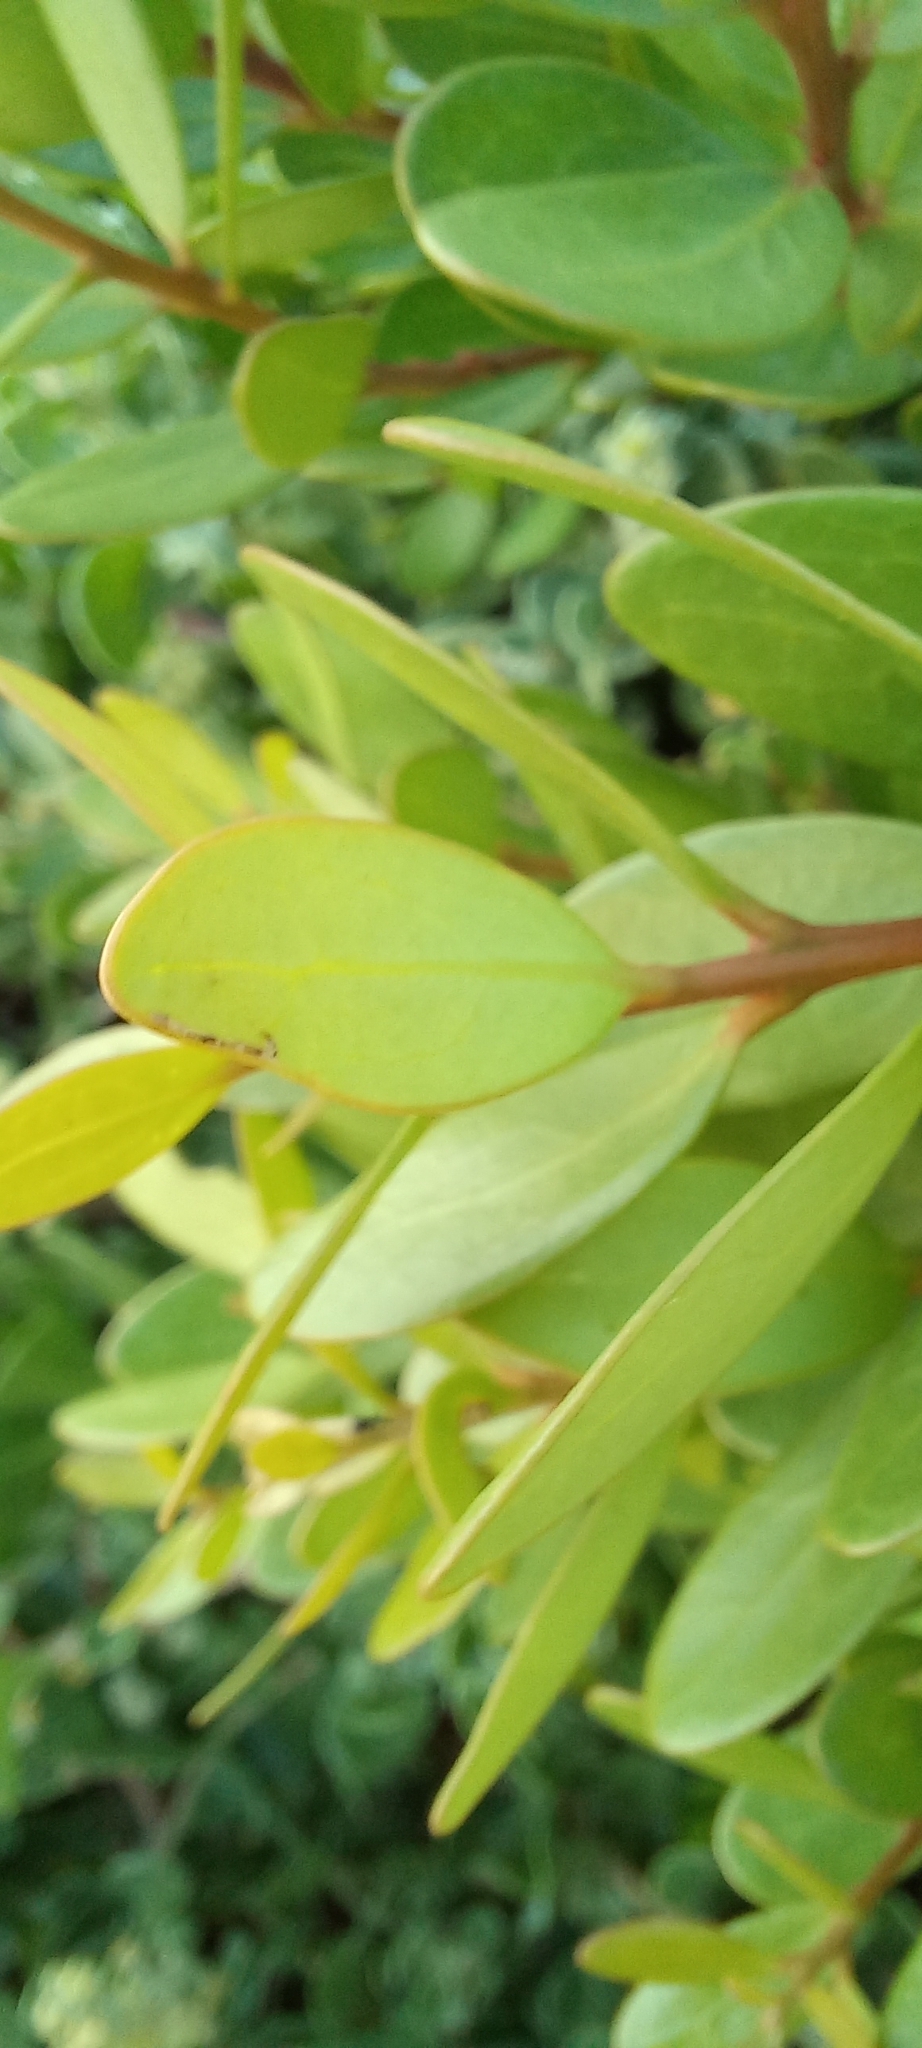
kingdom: Plantae
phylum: Tracheophyta
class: Magnoliopsida
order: Ericales
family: Ebenaceae
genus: Euclea
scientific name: Euclea racemosa
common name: Dune guarri
